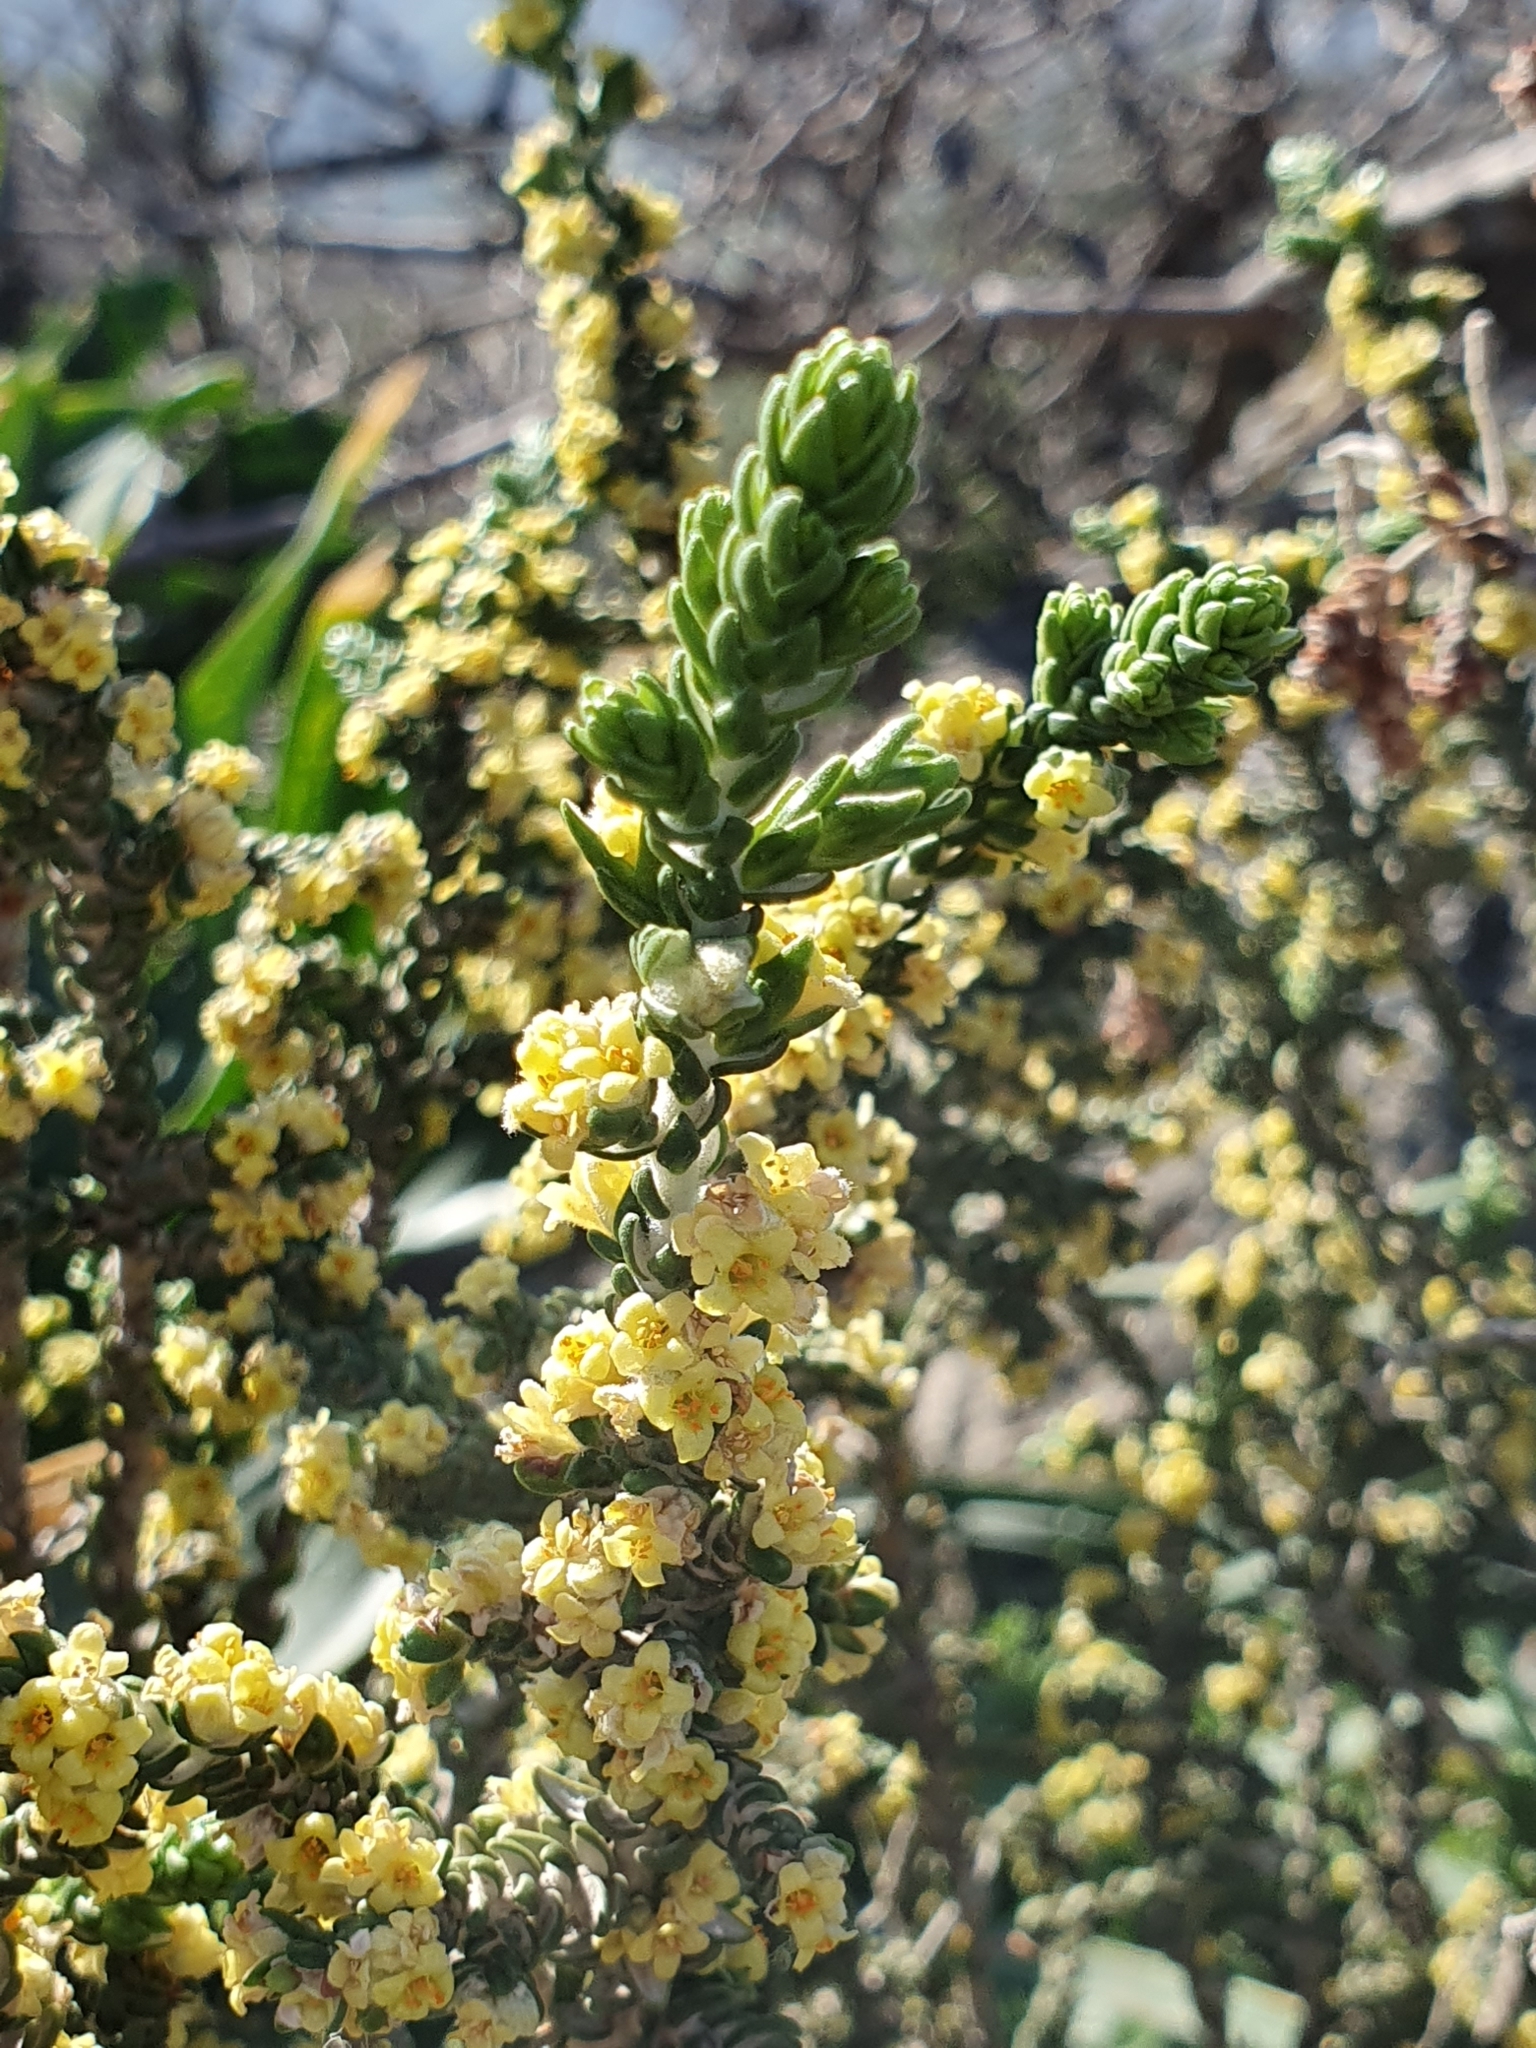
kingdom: Plantae
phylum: Tracheophyta
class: Magnoliopsida
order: Malvales
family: Thymelaeaceae
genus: Thymelaea
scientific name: Thymelaea hirsuta
